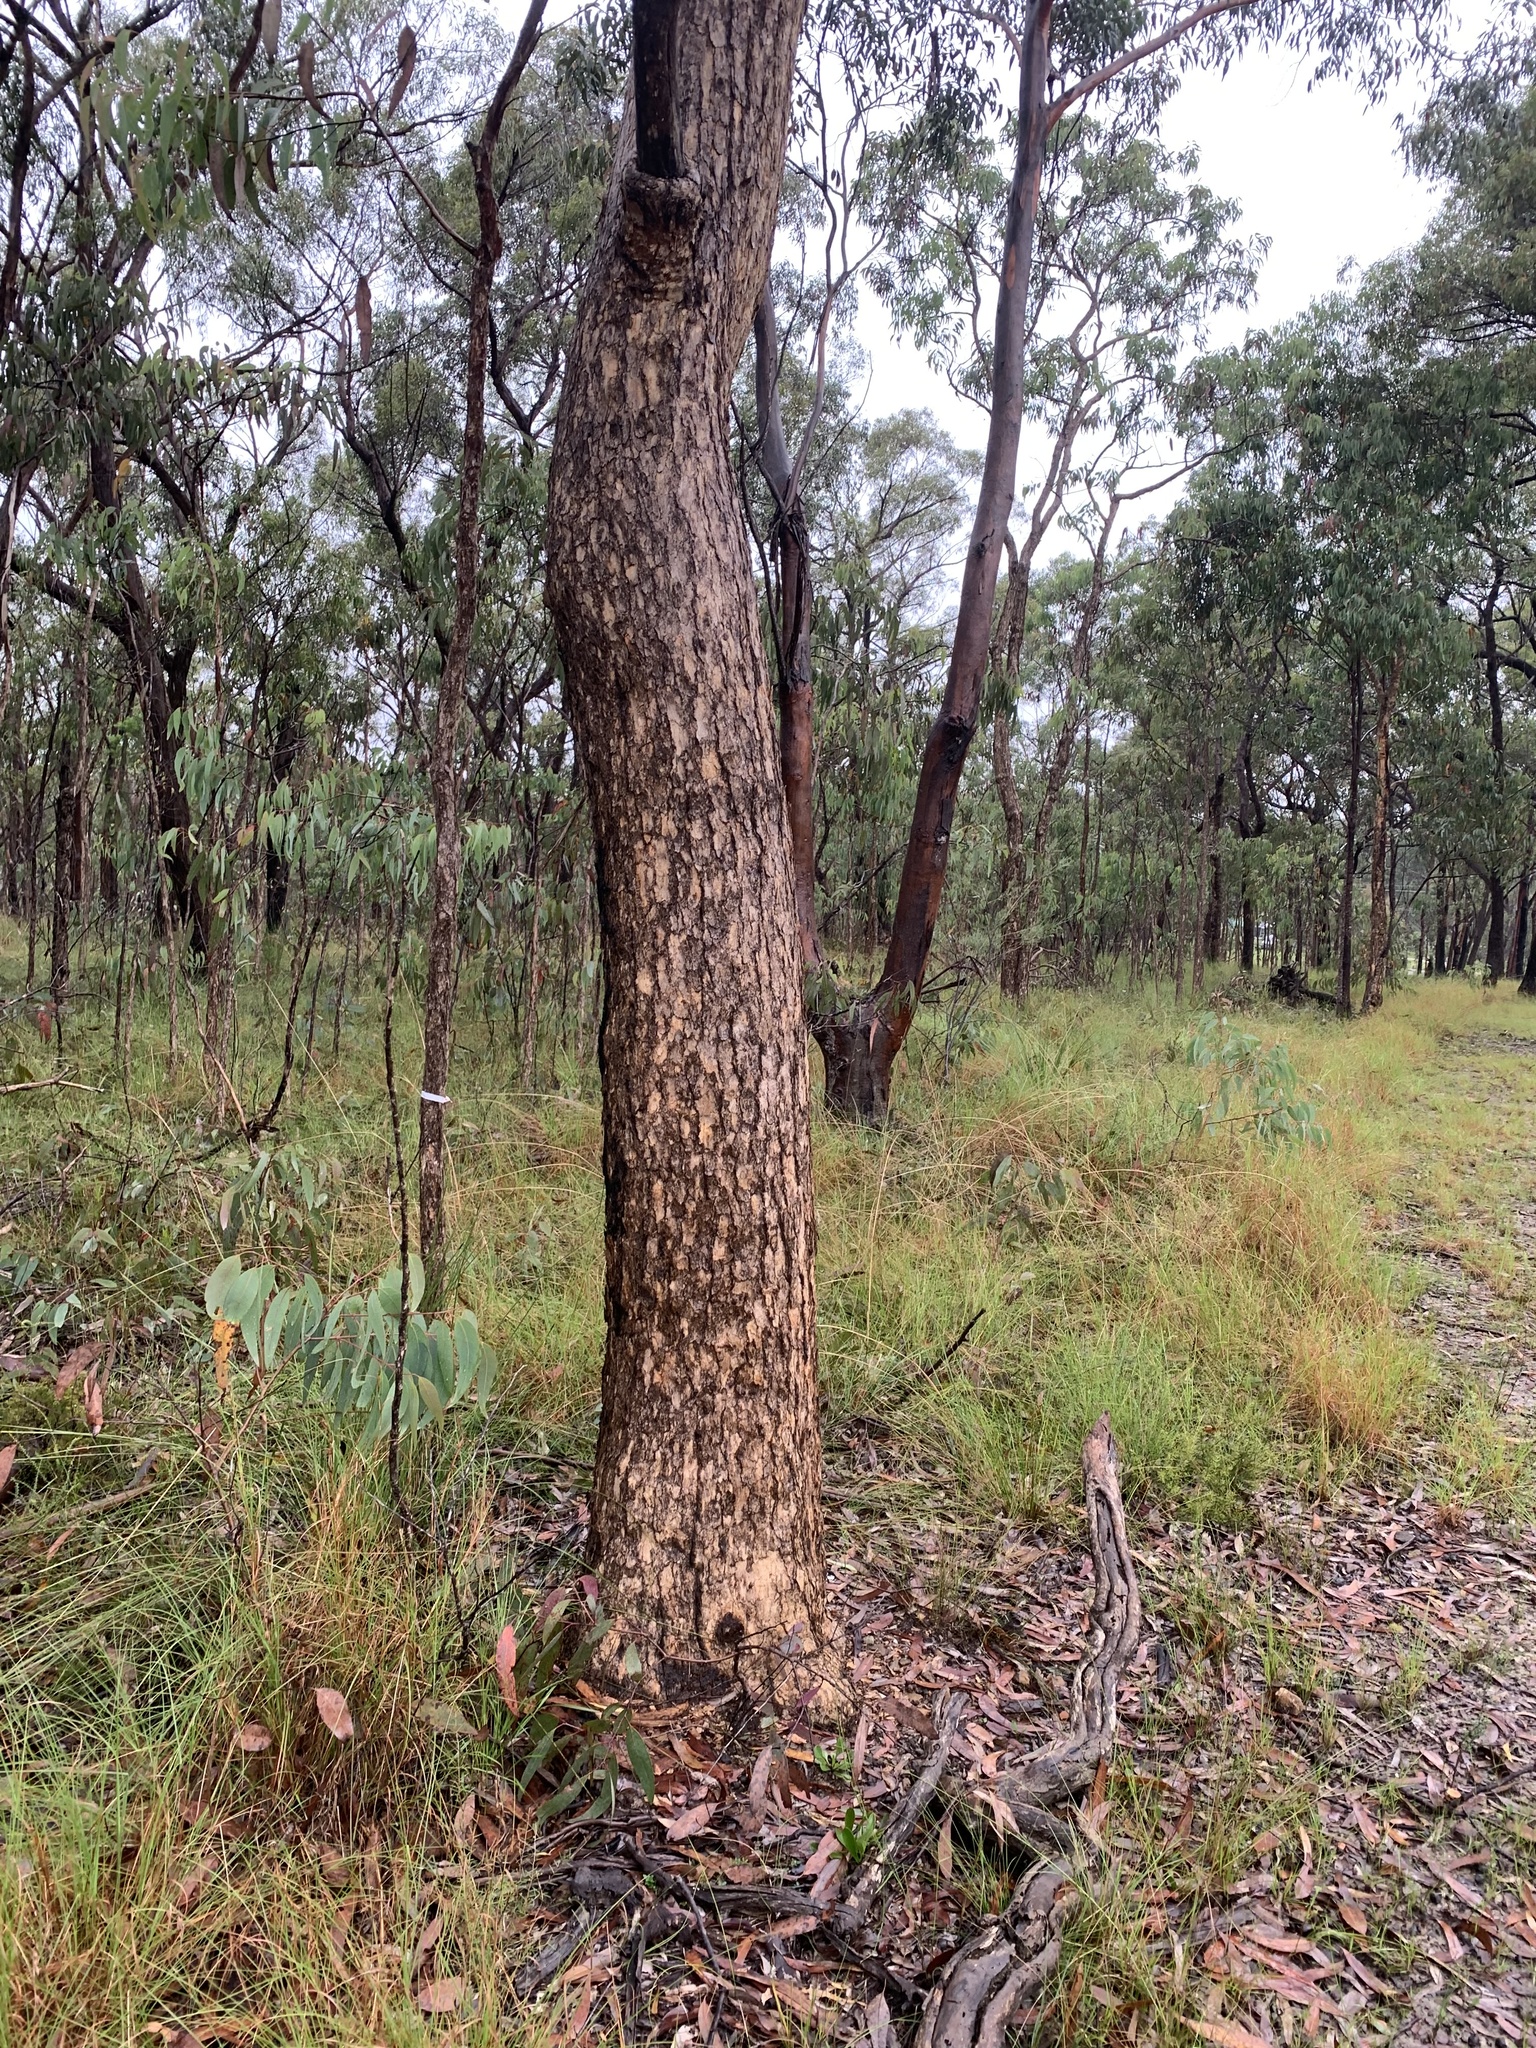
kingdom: Plantae
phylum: Tracheophyta
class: Magnoliopsida
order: Myrtales
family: Myrtaceae
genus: Corymbia
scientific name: Corymbia eximia
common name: Yellow bloodwood
